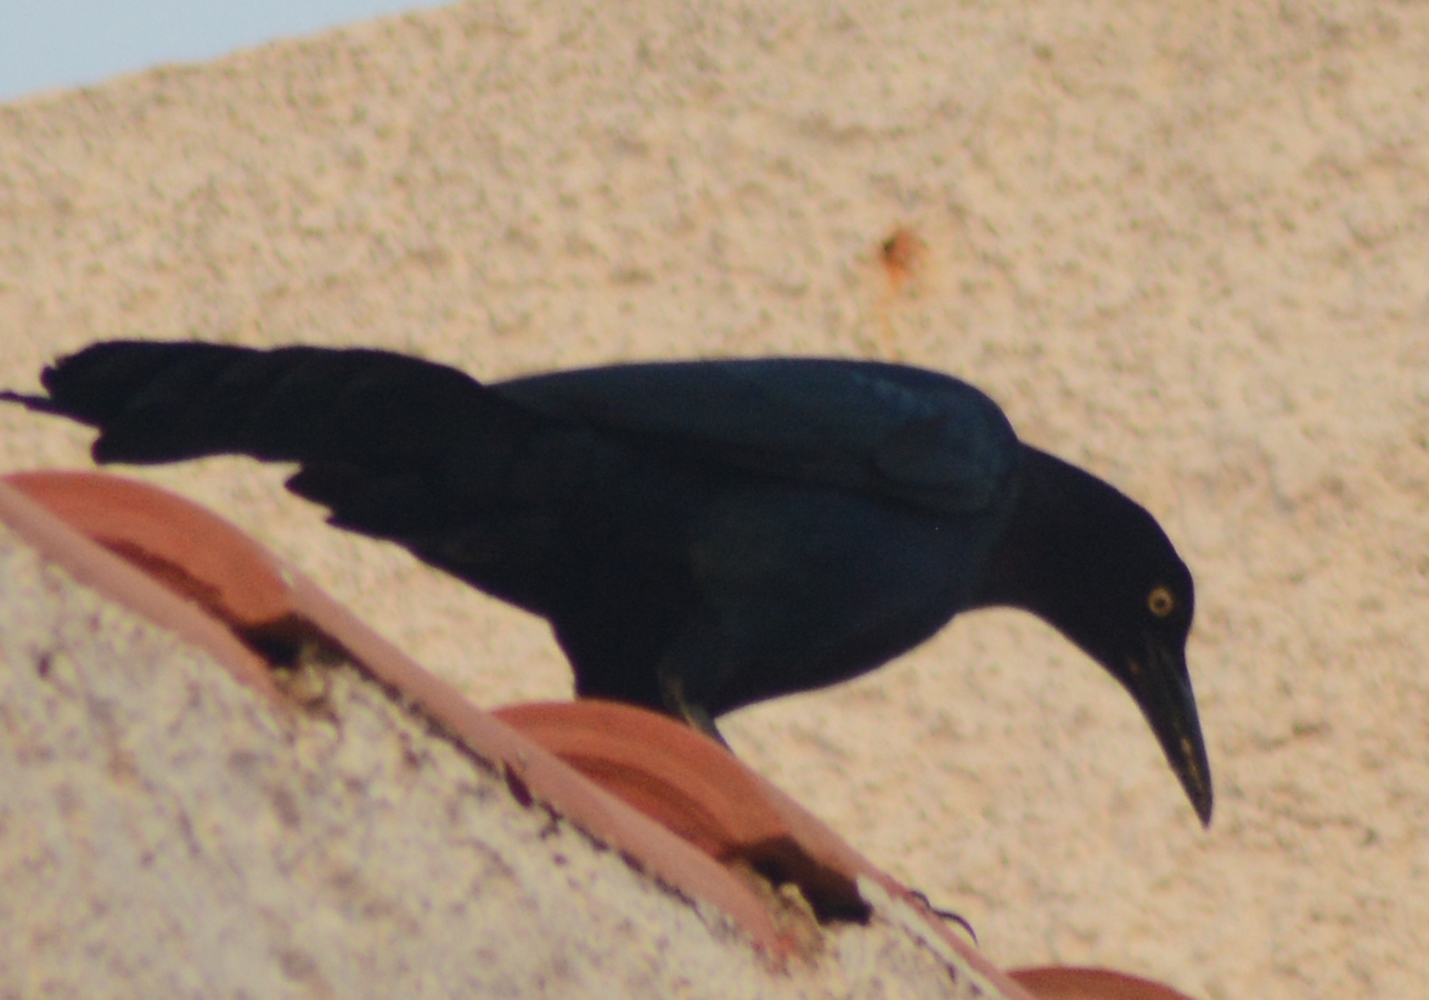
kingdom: Animalia
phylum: Chordata
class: Aves
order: Passeriformes
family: Icteridae
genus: Quiscalus
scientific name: Quiscalus mexicanus
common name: Great-tailed grackle
